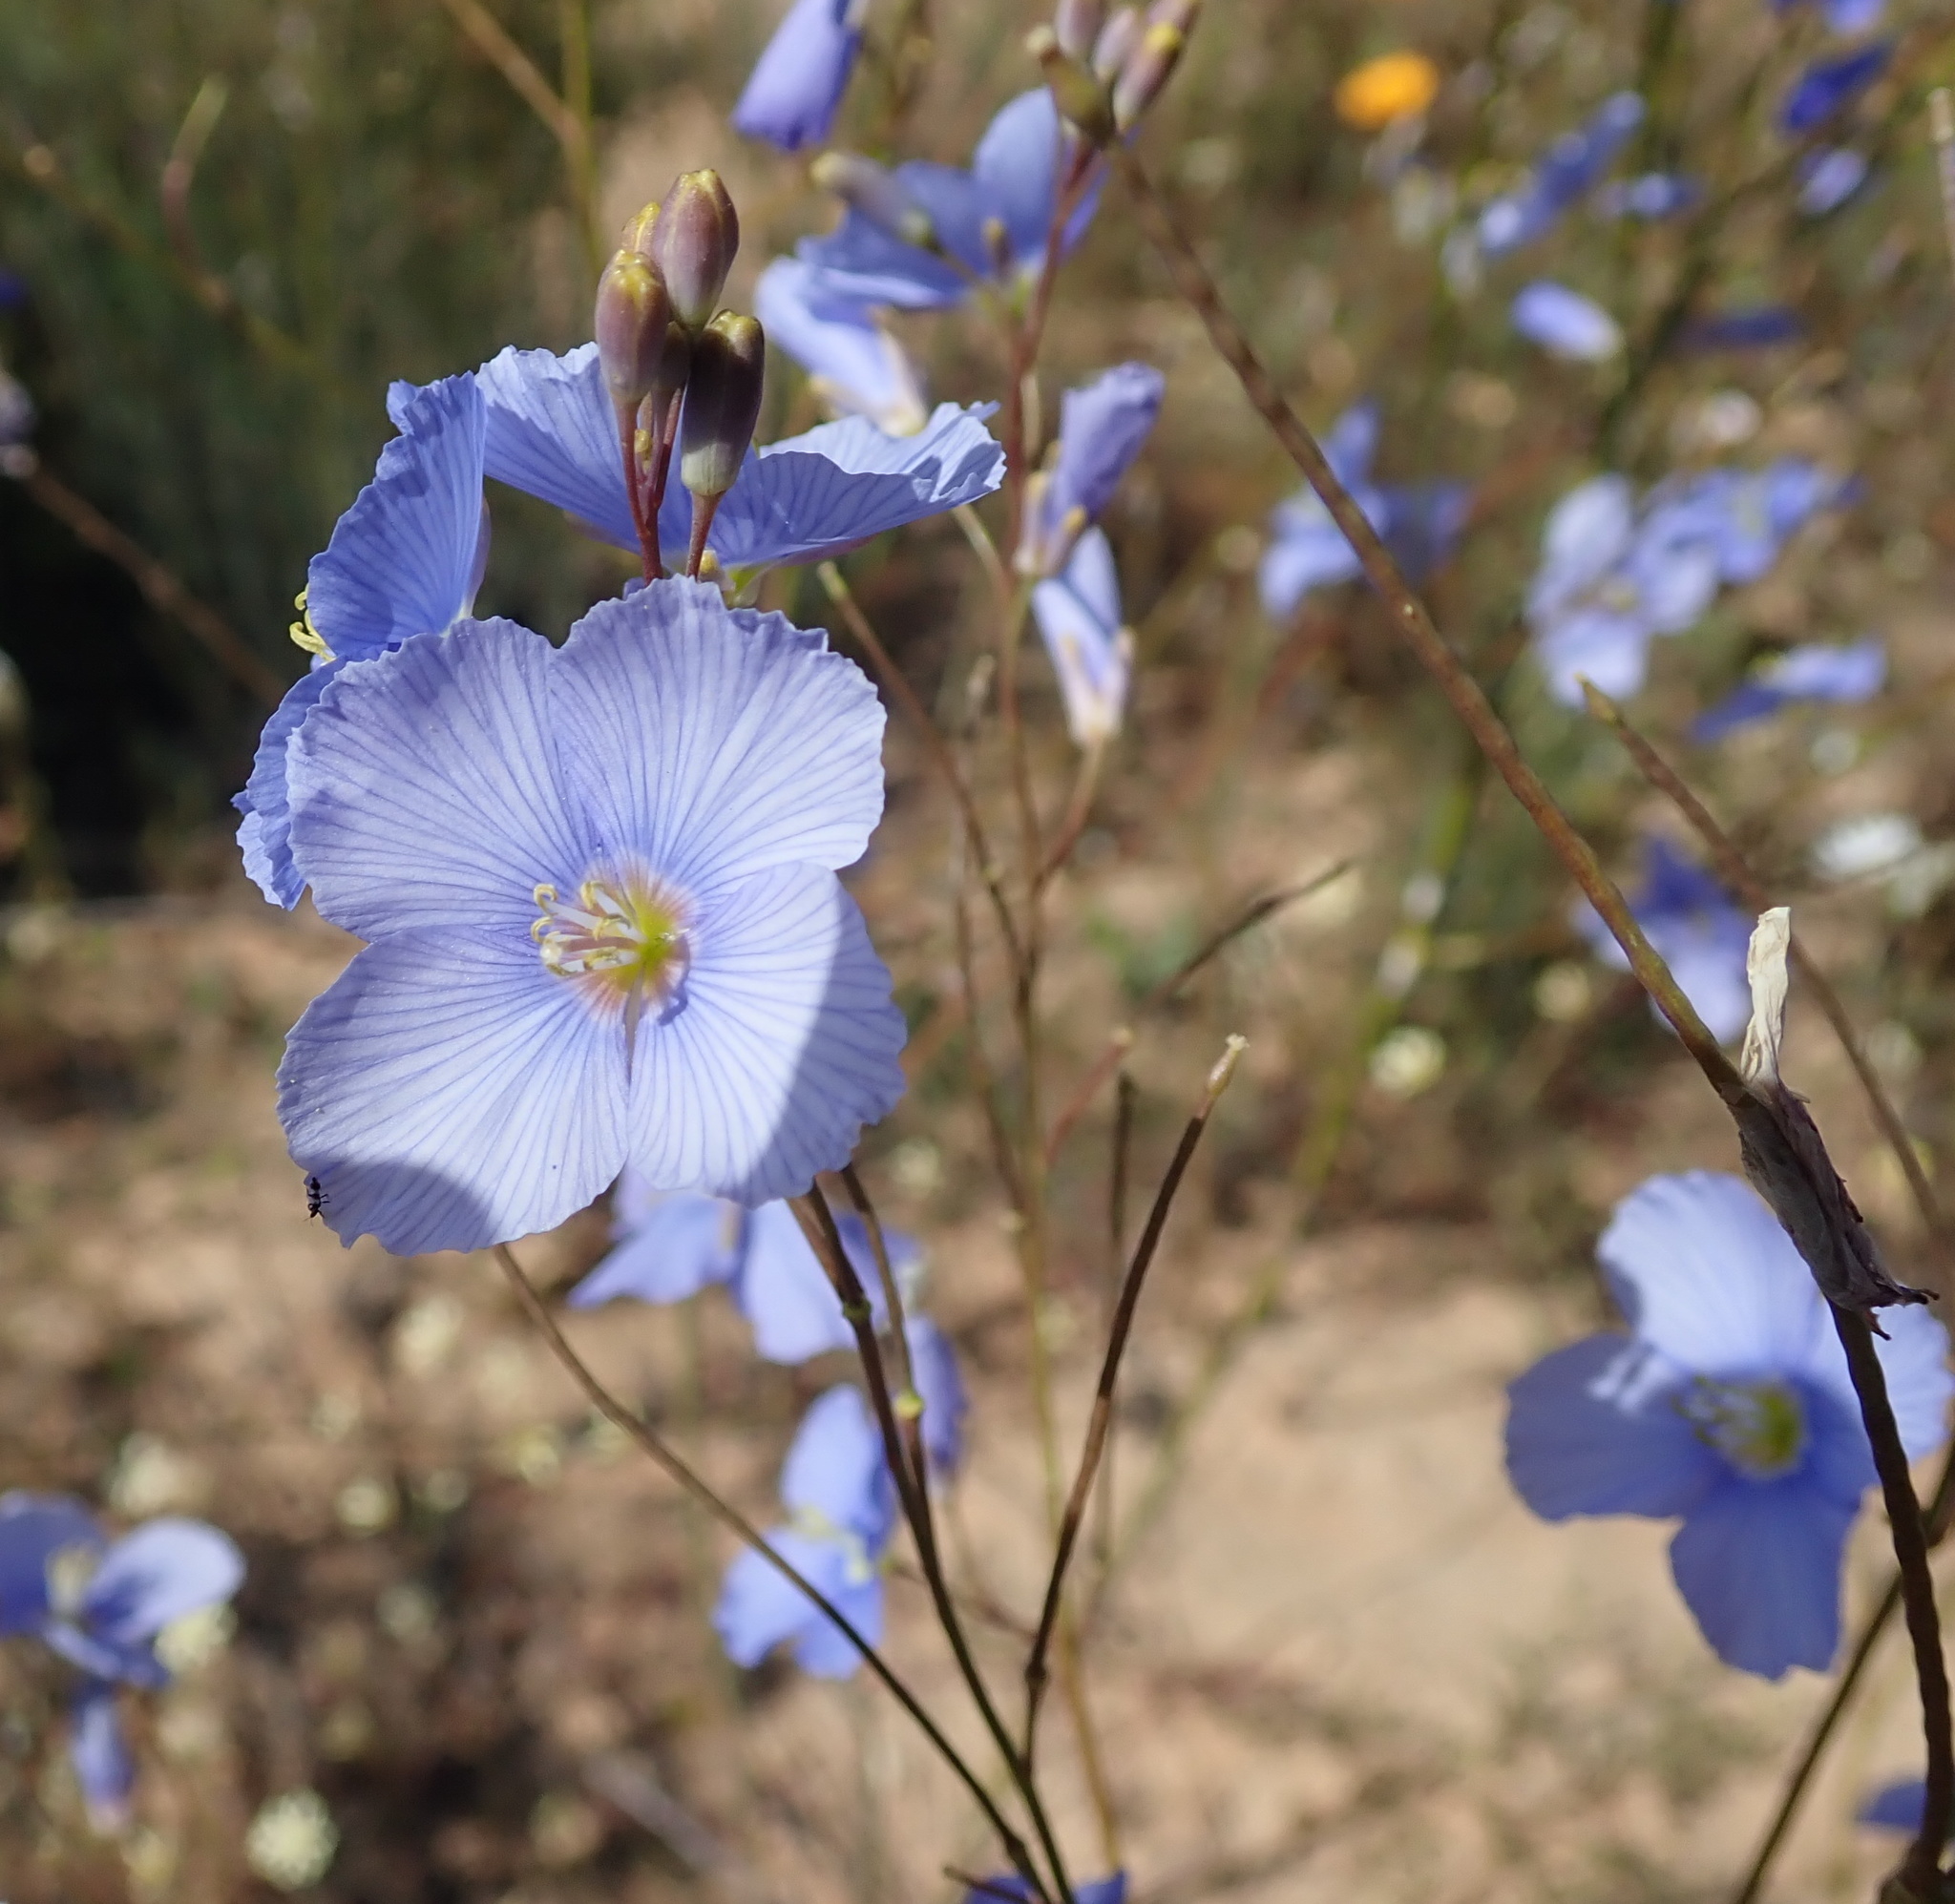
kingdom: Plantae
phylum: Tracheophyta
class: Magnoliopsida
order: Brassicales
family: Brassicaceae
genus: Heliophila
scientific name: Heliophila coronopifolia
